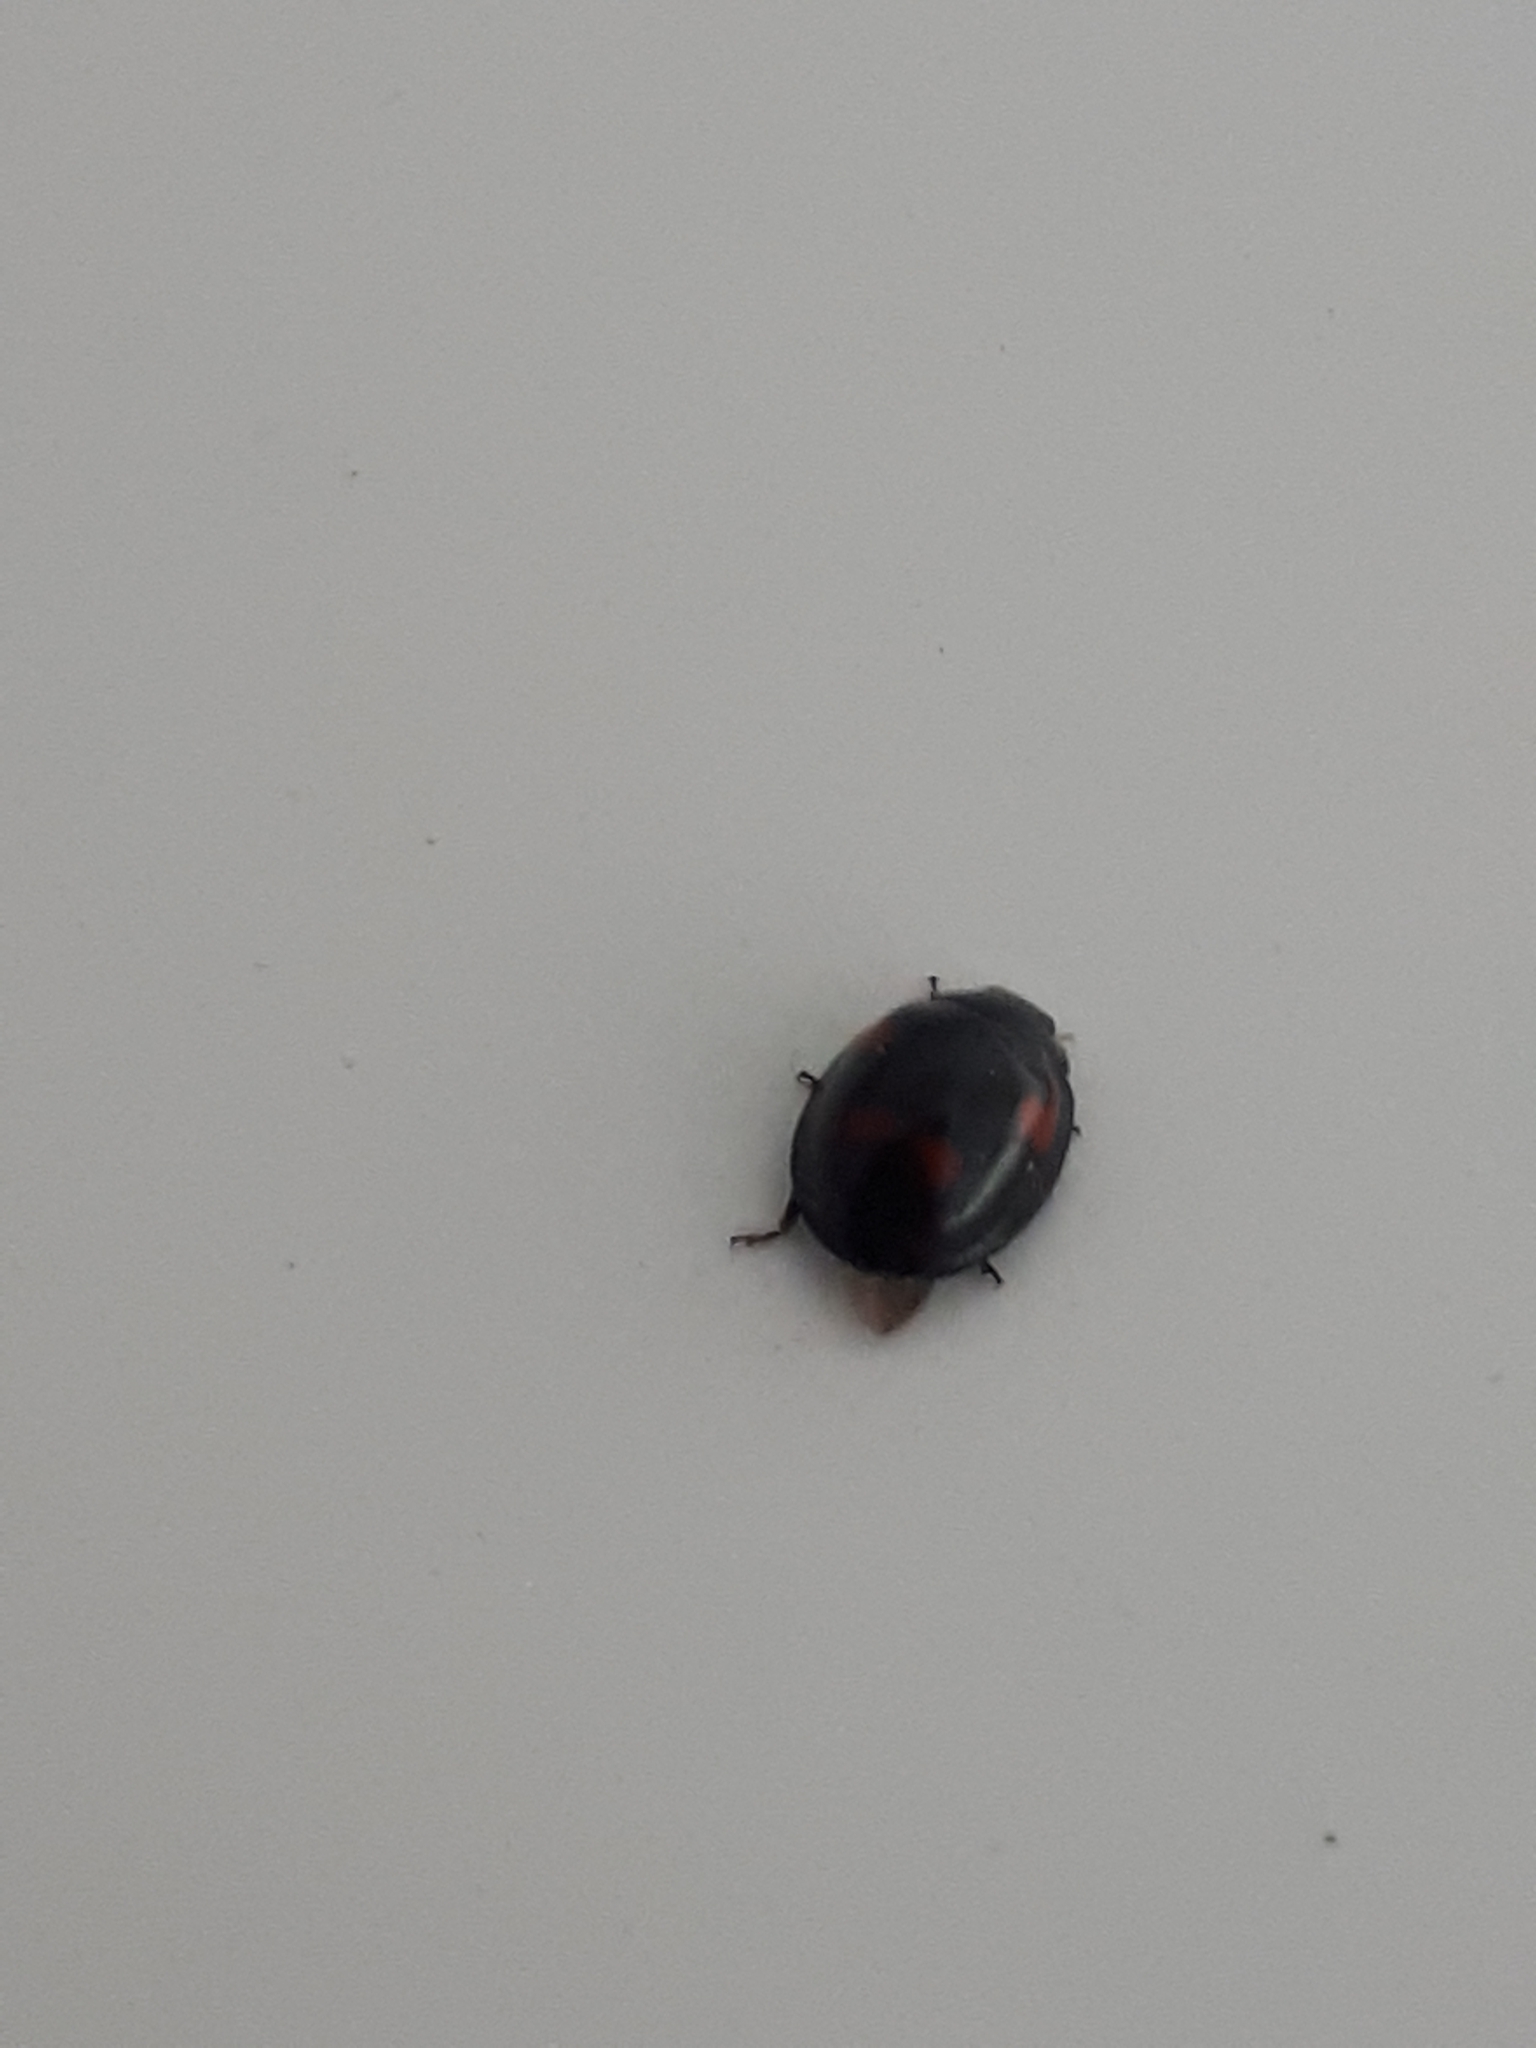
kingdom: Animalia
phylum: Arthropoda
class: Insecta
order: Coleoptera
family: Coccinellidae
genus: Brumus
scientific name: Brumus quadripustulatus
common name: Ladybird beetle
